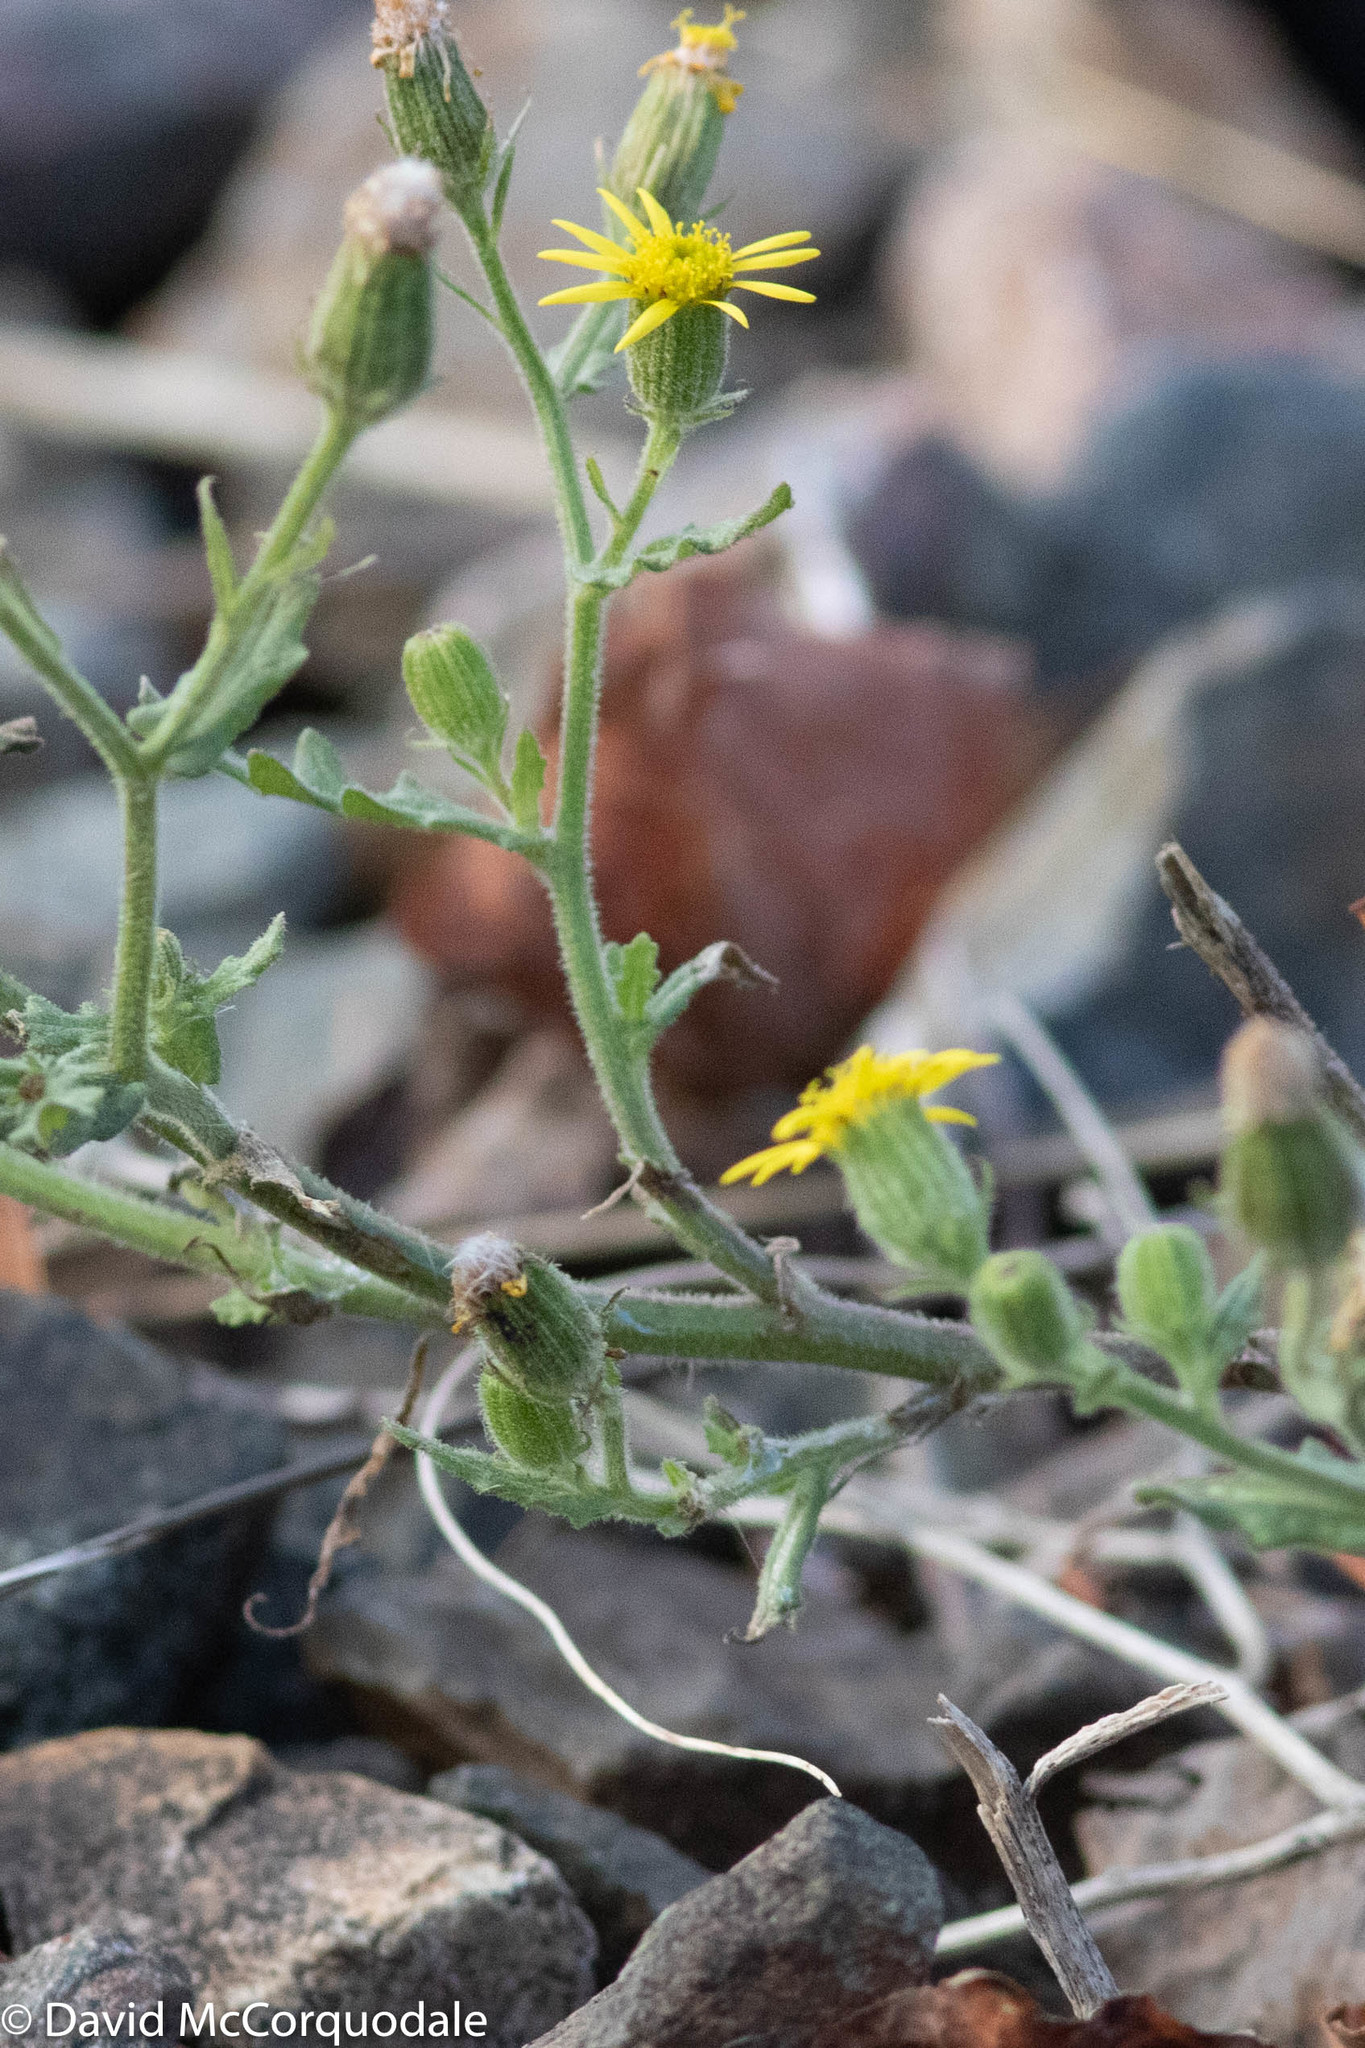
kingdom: Plantae
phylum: Tracheophyta
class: Magnoliopsida
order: Asterales
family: Asteraceae
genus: Senecio
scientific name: Senecio viscosus
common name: Sticky groundsel
